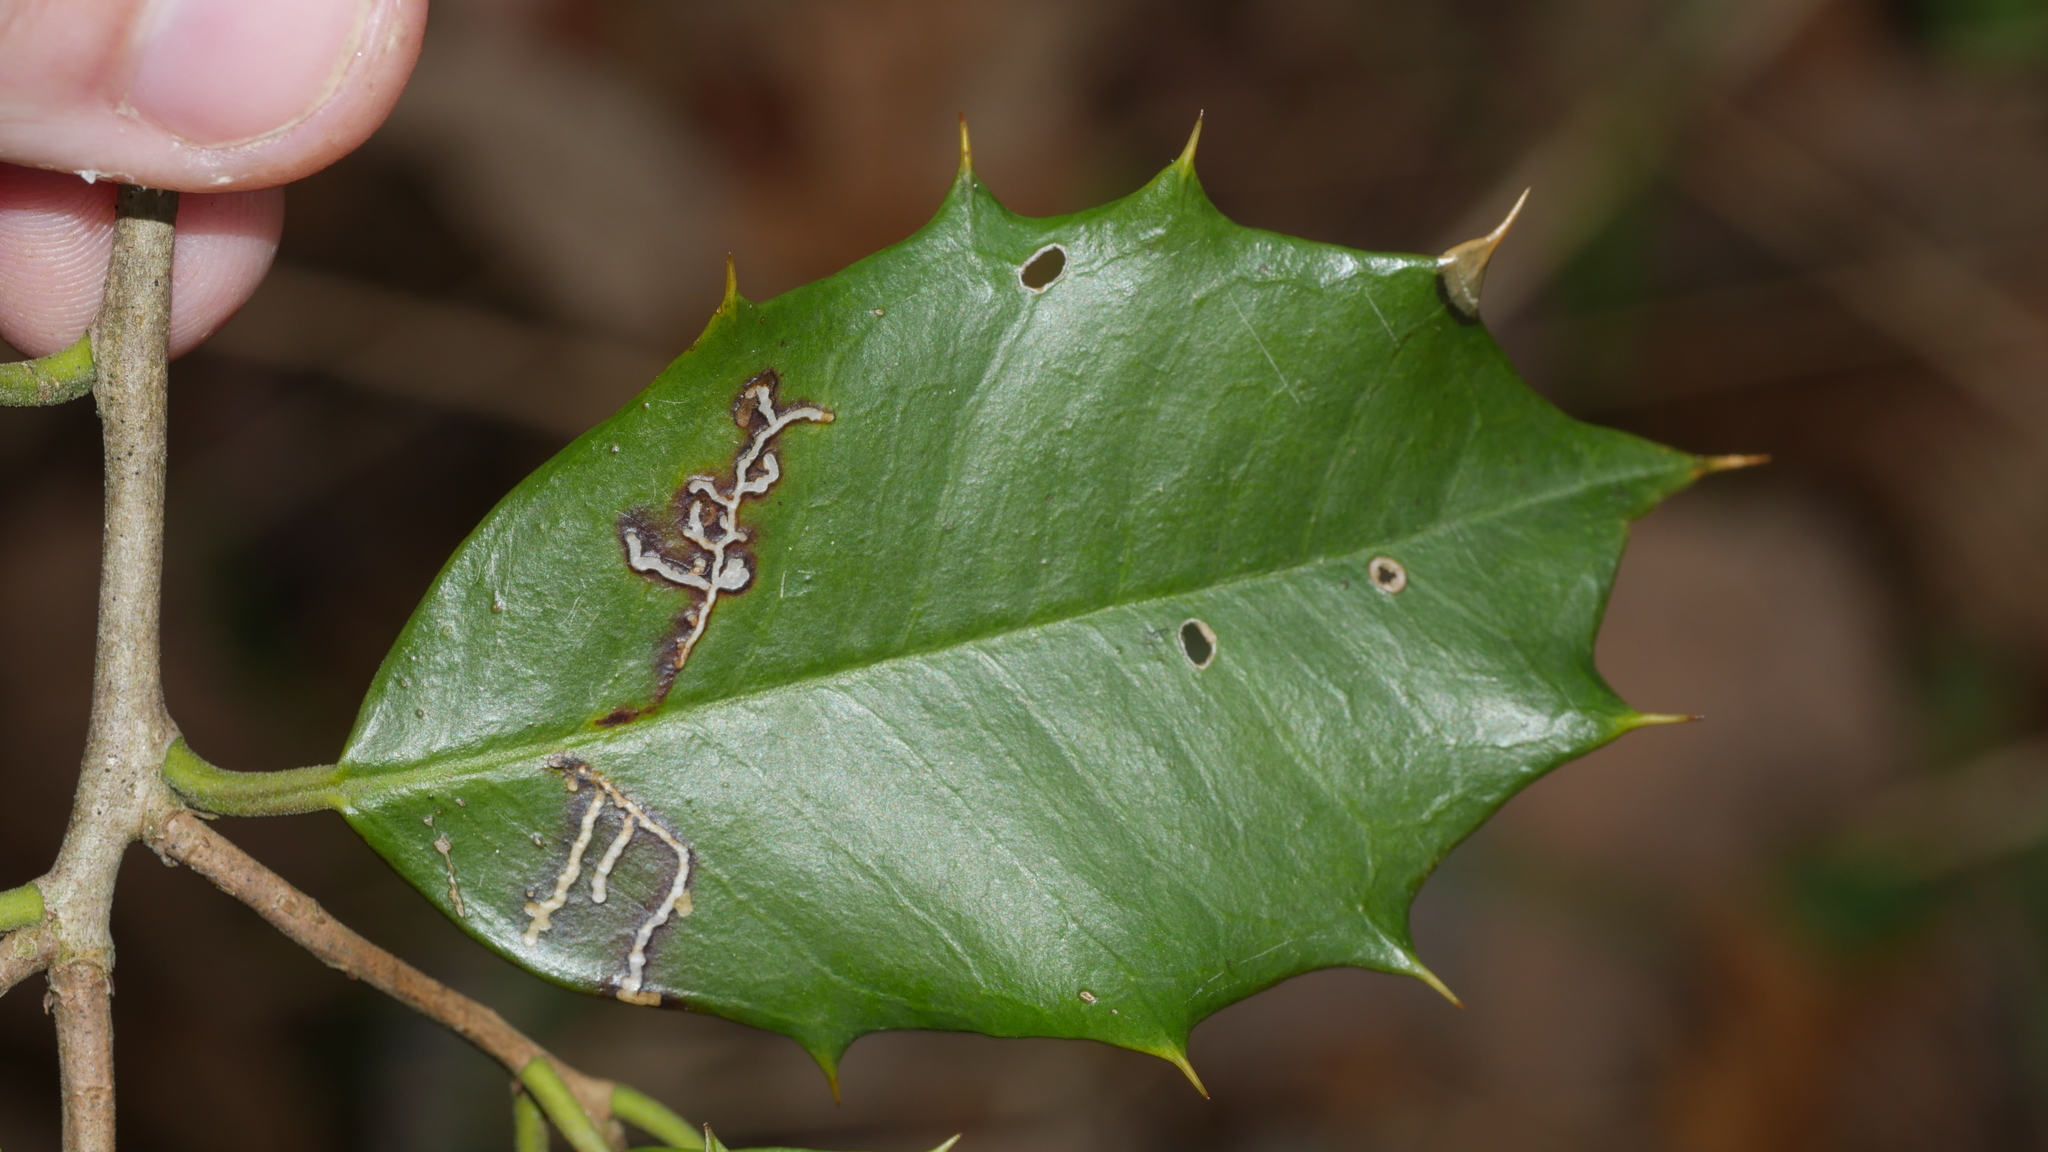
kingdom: Animalia
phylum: Arthropoda
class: Insecta
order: Lepidoptera
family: Tortricidae
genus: Rhopobota
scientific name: Rhopobota
